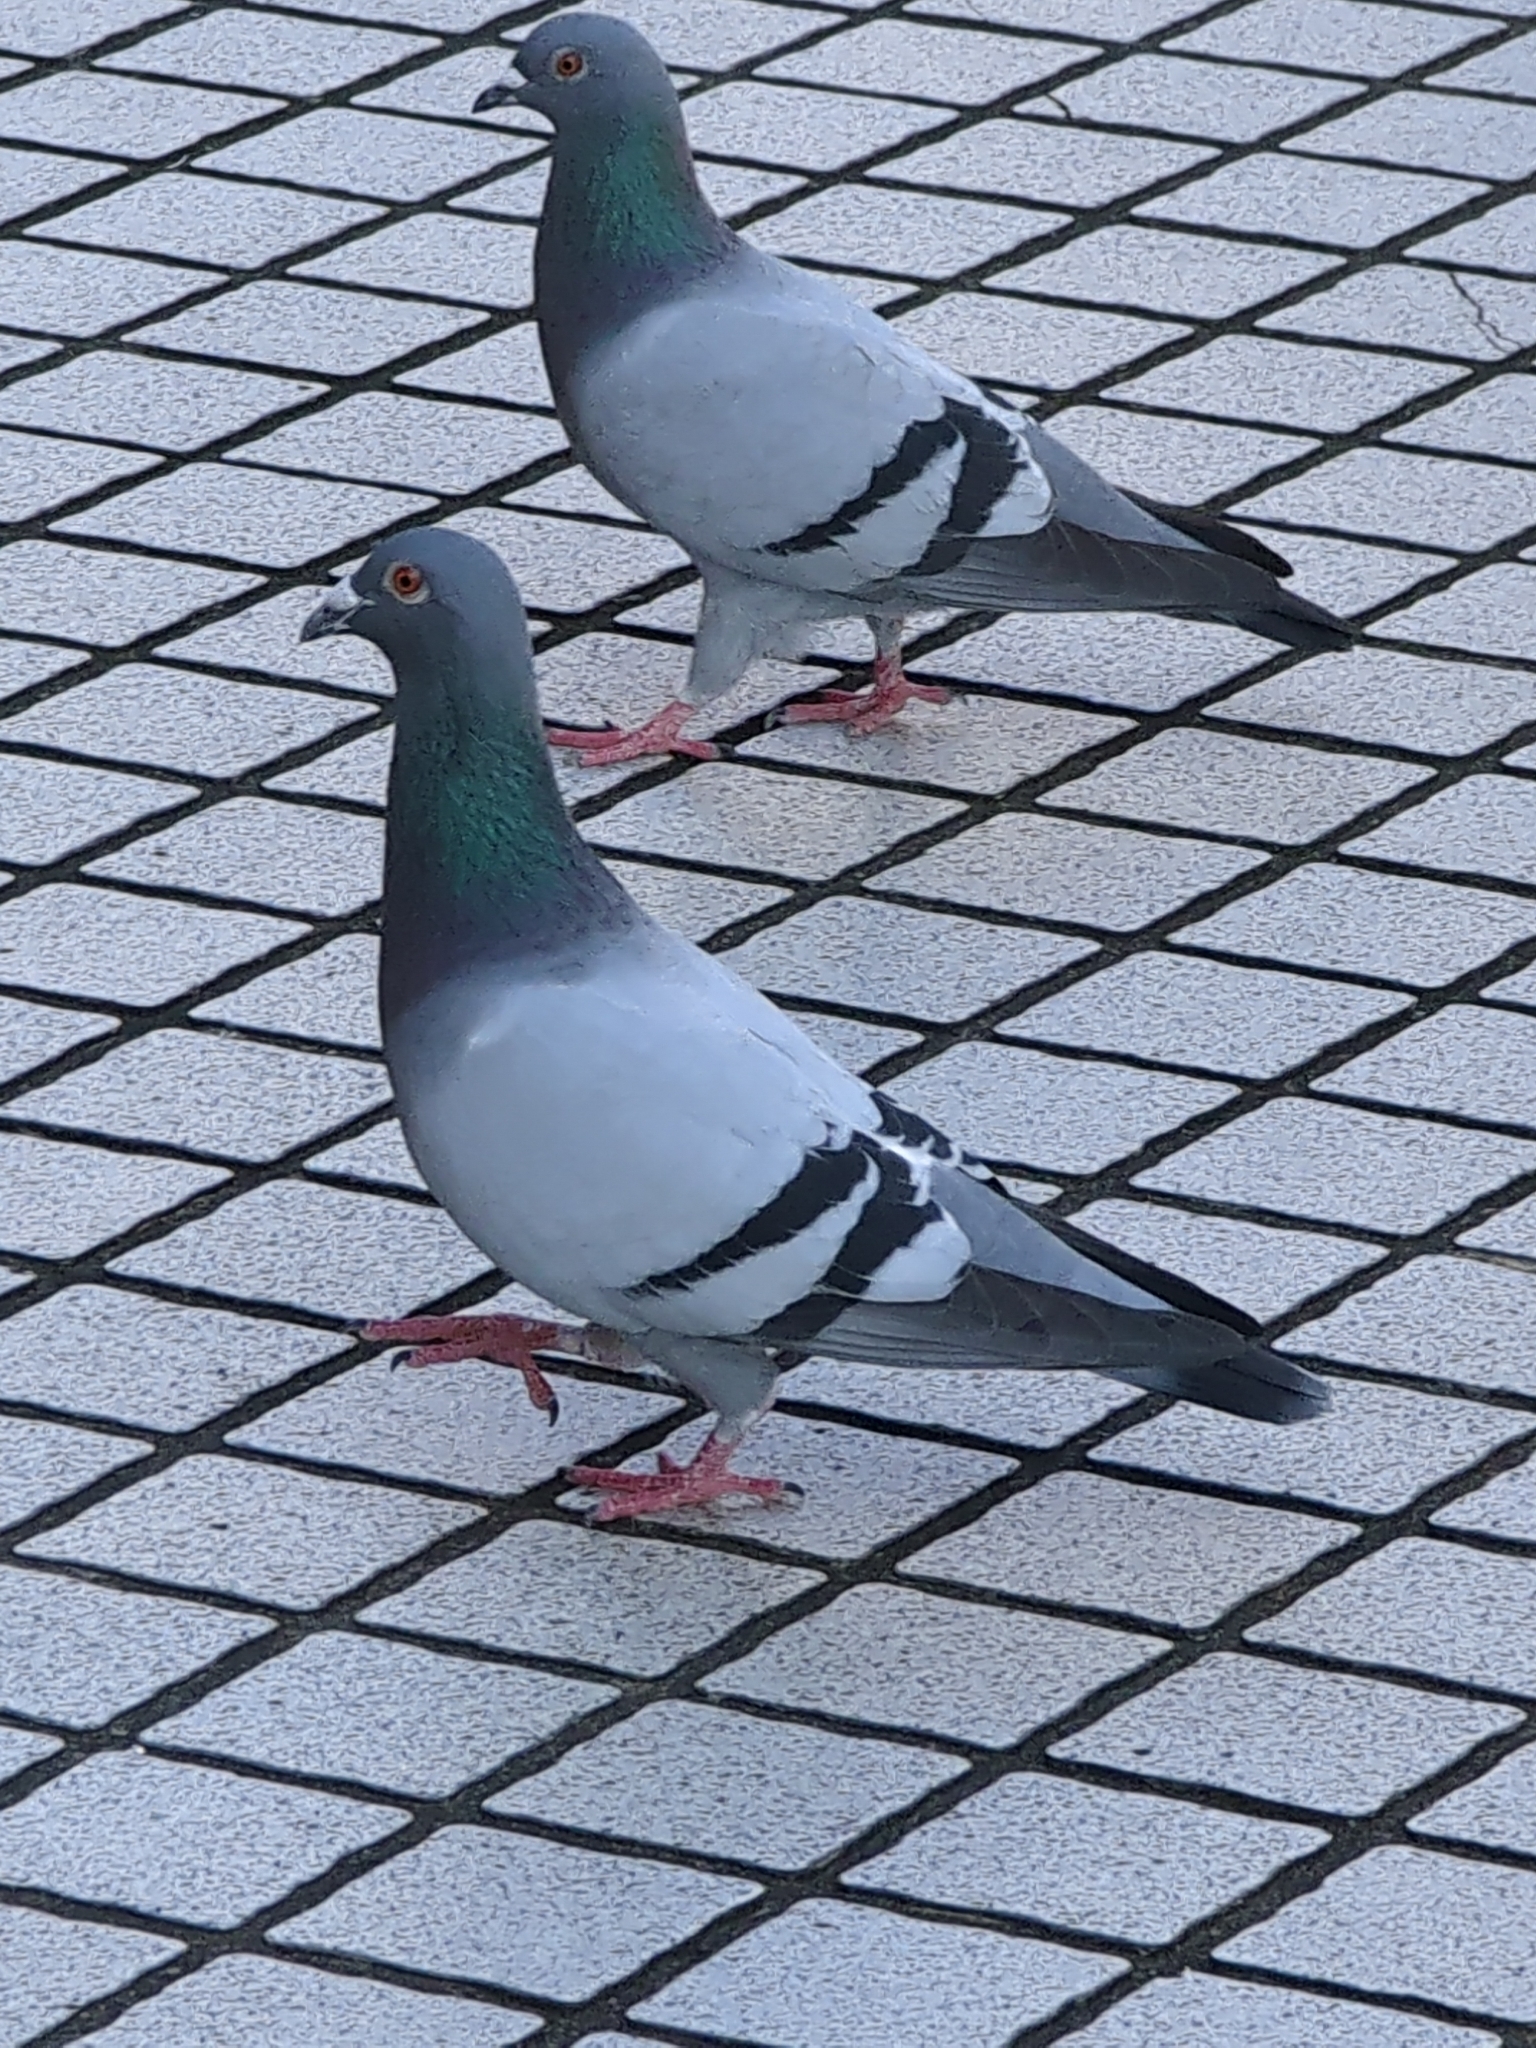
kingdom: Animalia
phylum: Chordata
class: Aves
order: Columbiformes
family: Columbidae
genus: Columba
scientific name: Columba livia
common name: Rock pigeon
